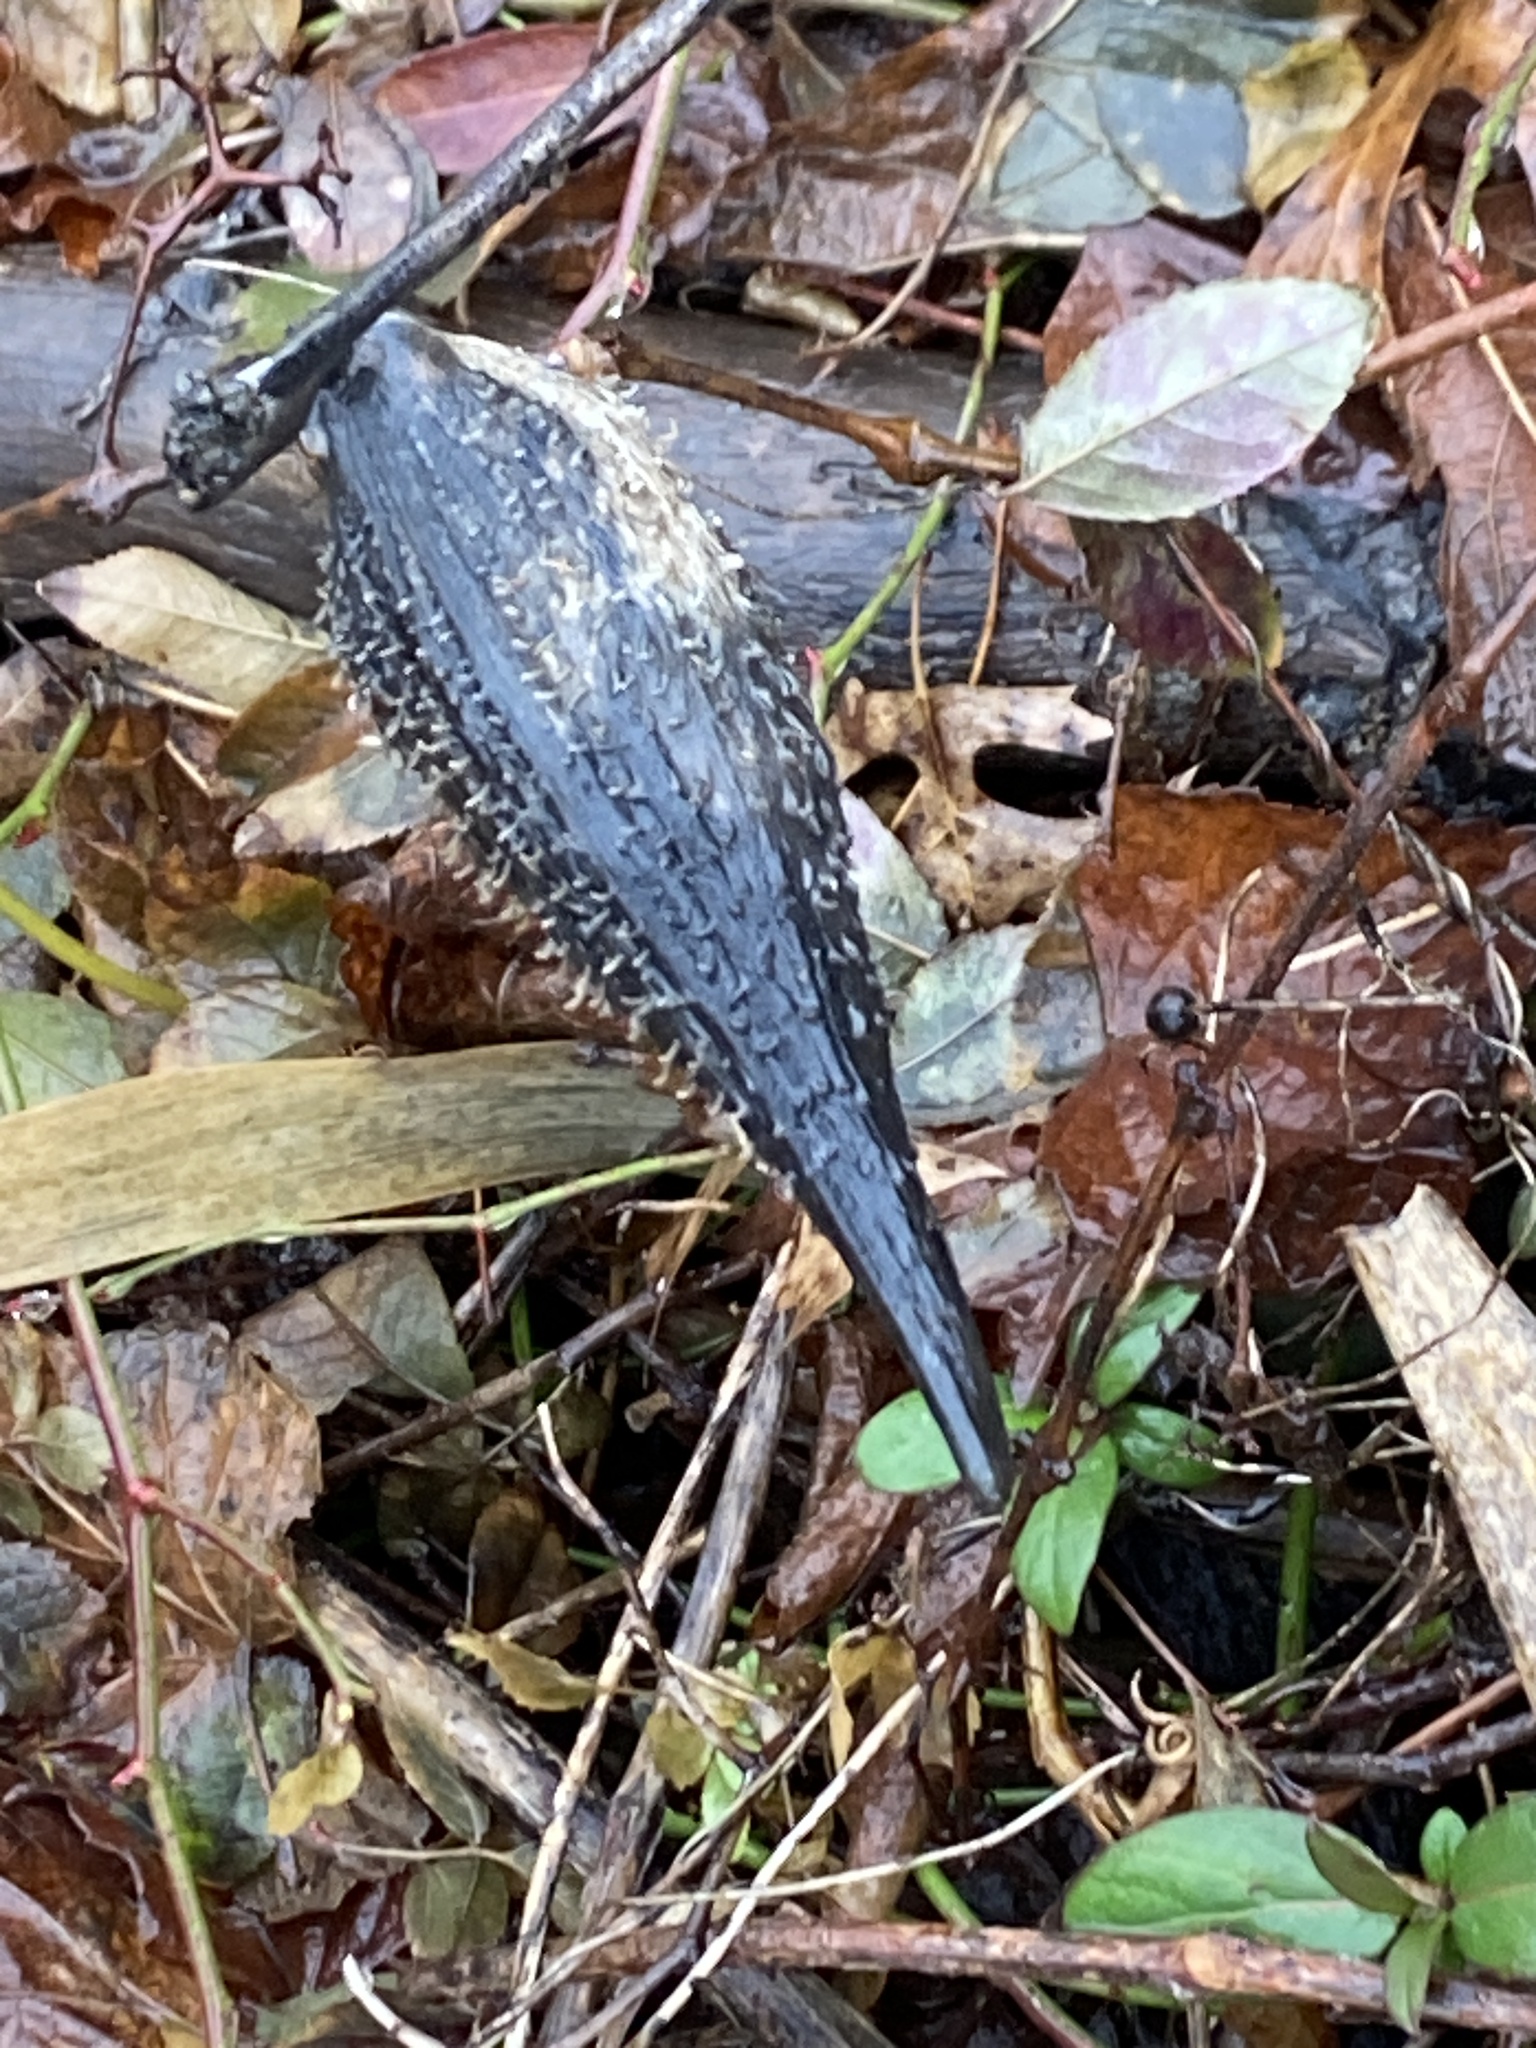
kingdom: Plantae
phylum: Tracheophyta
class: Magnoliopsida
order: Gentianales
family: Apocynaceae
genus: Asclepias
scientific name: Asclepias syriaca
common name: Common milkweed
